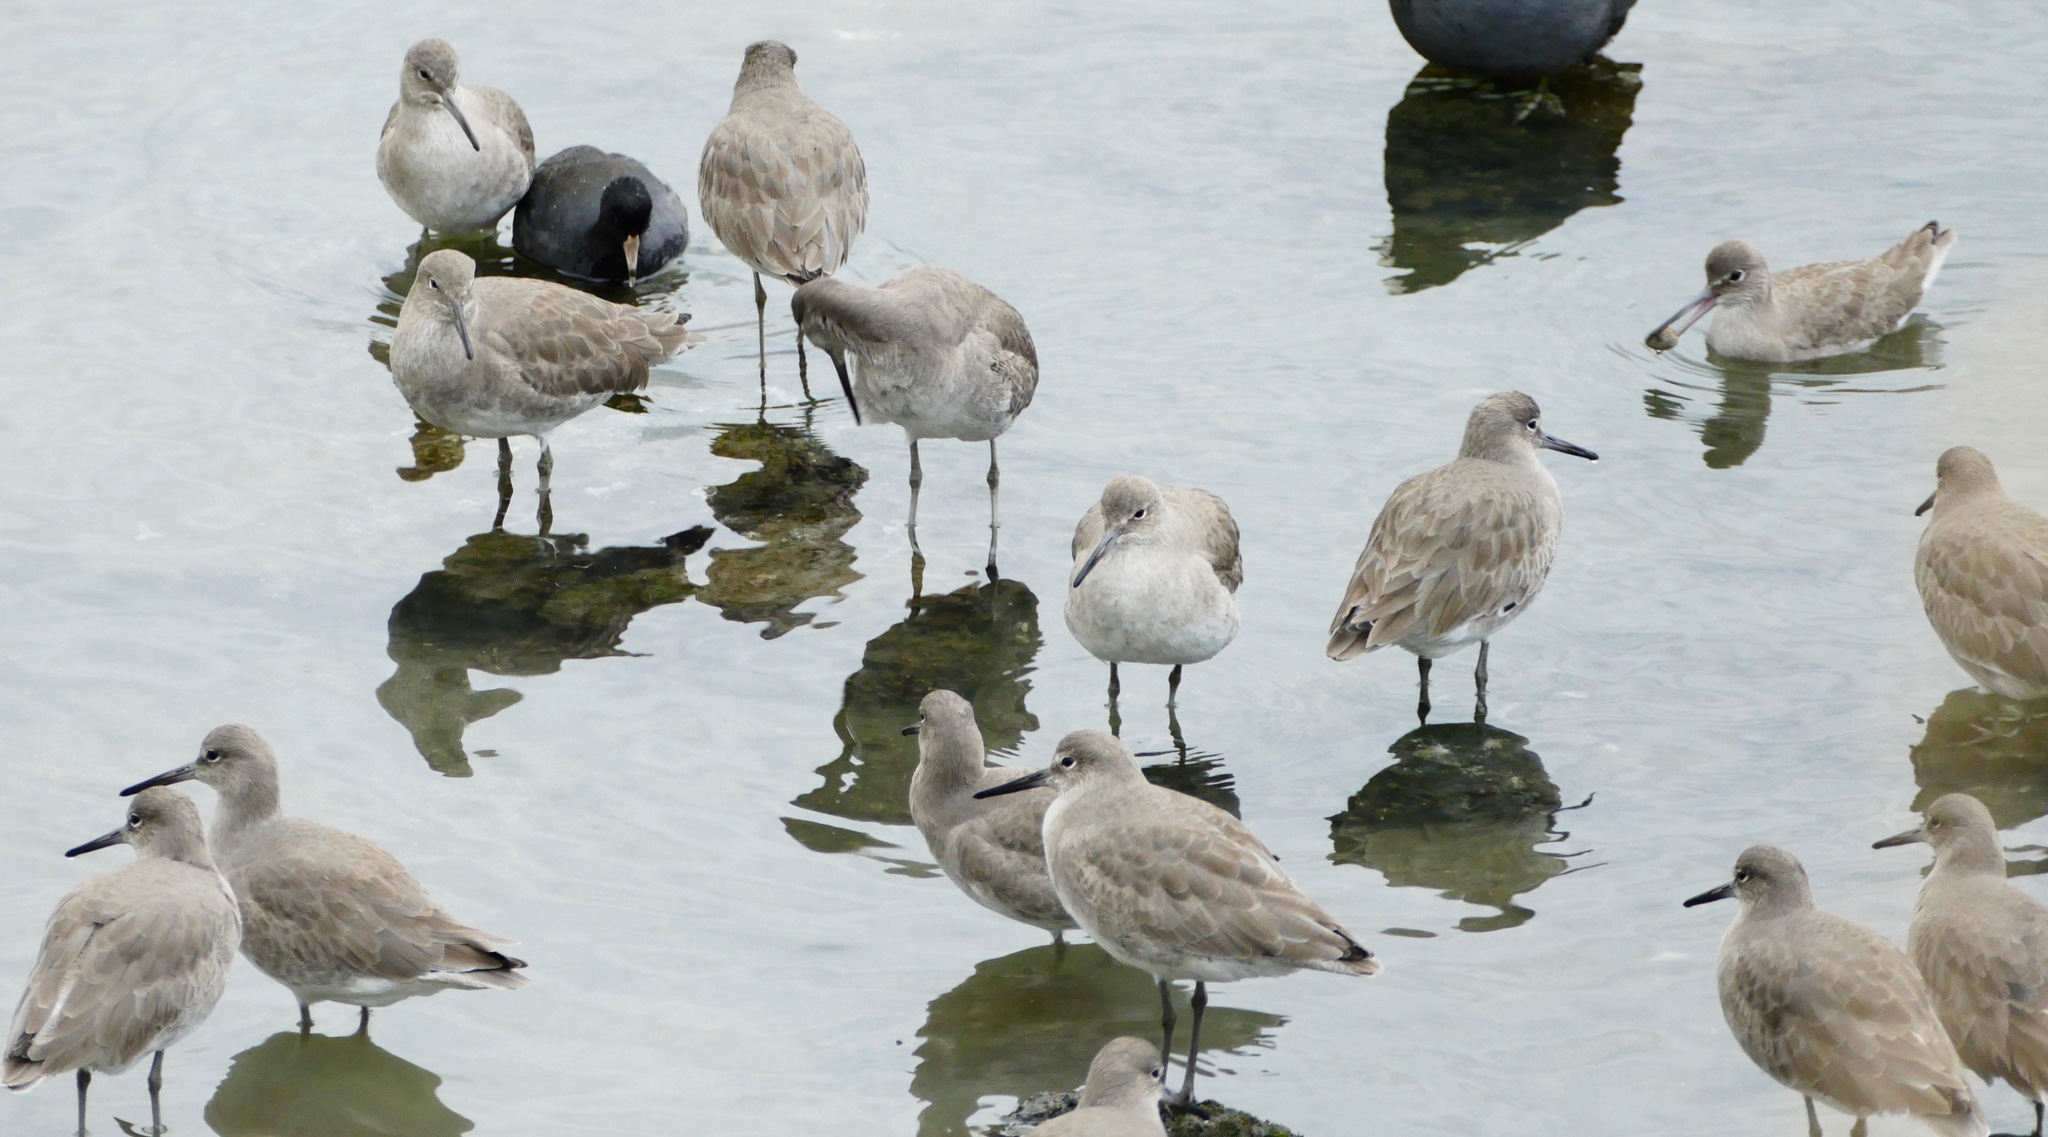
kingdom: Animalia
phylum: Chordata
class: Aves
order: Charadriiformes
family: Scolopacidae
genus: Tringa
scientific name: Tringa semipalmata
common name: Willet
